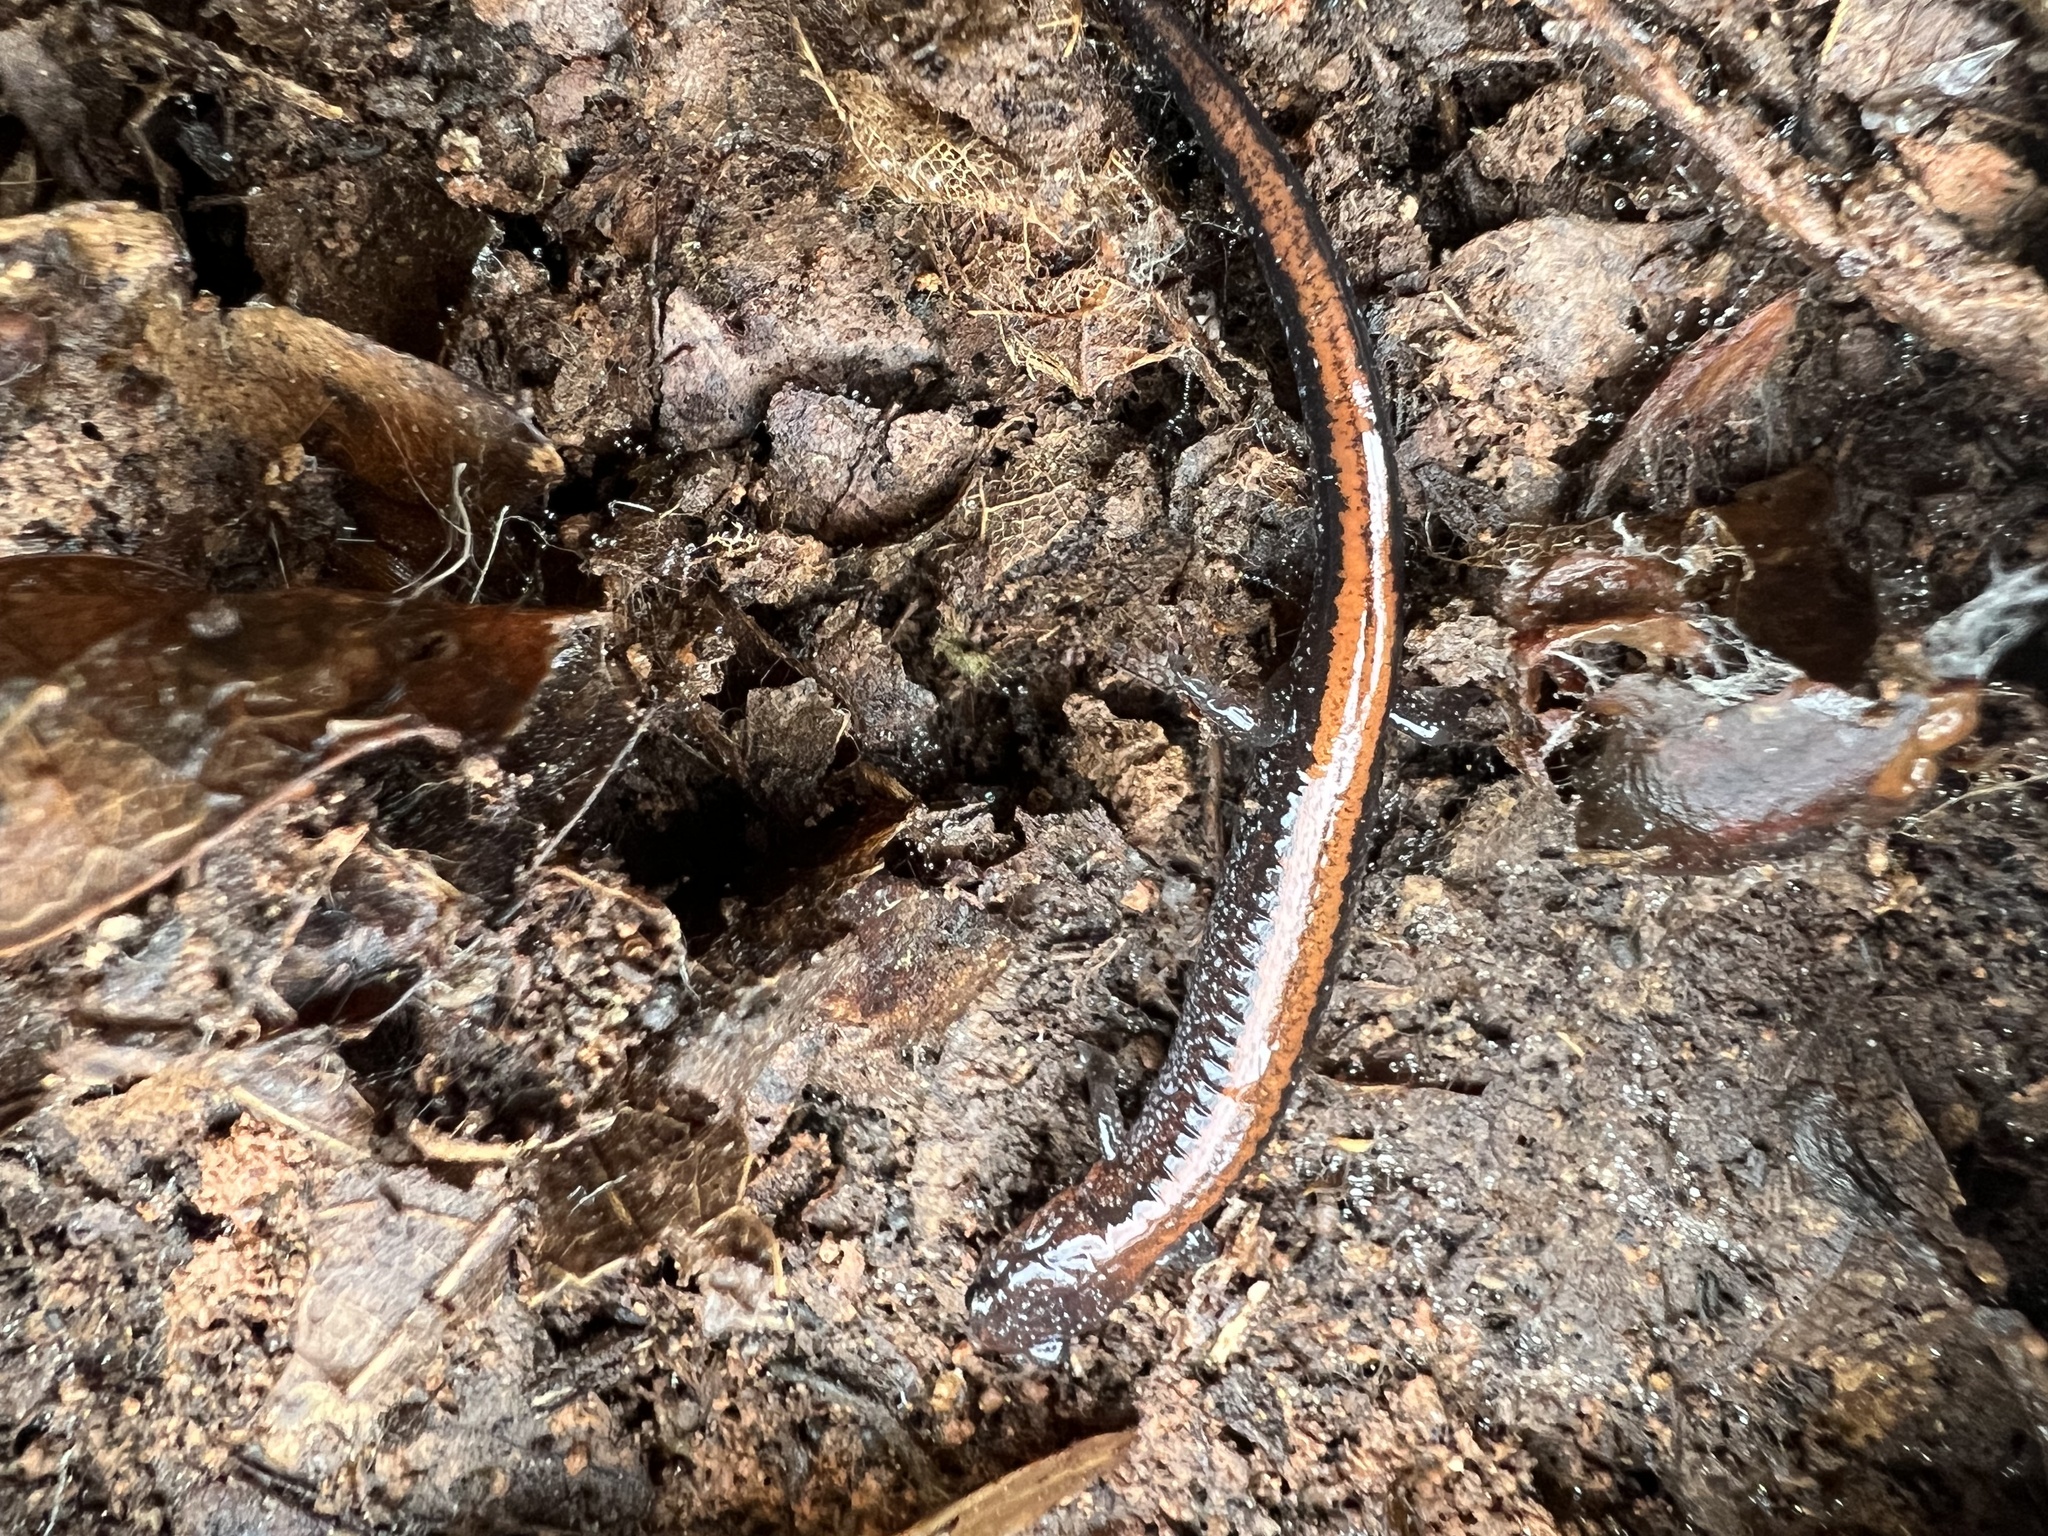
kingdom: Animalia
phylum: Chordata
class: Amphibia
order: Caudata
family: Plethodontidae
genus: Plethodon
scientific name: Plethodon cinereus
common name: Redback salamander
